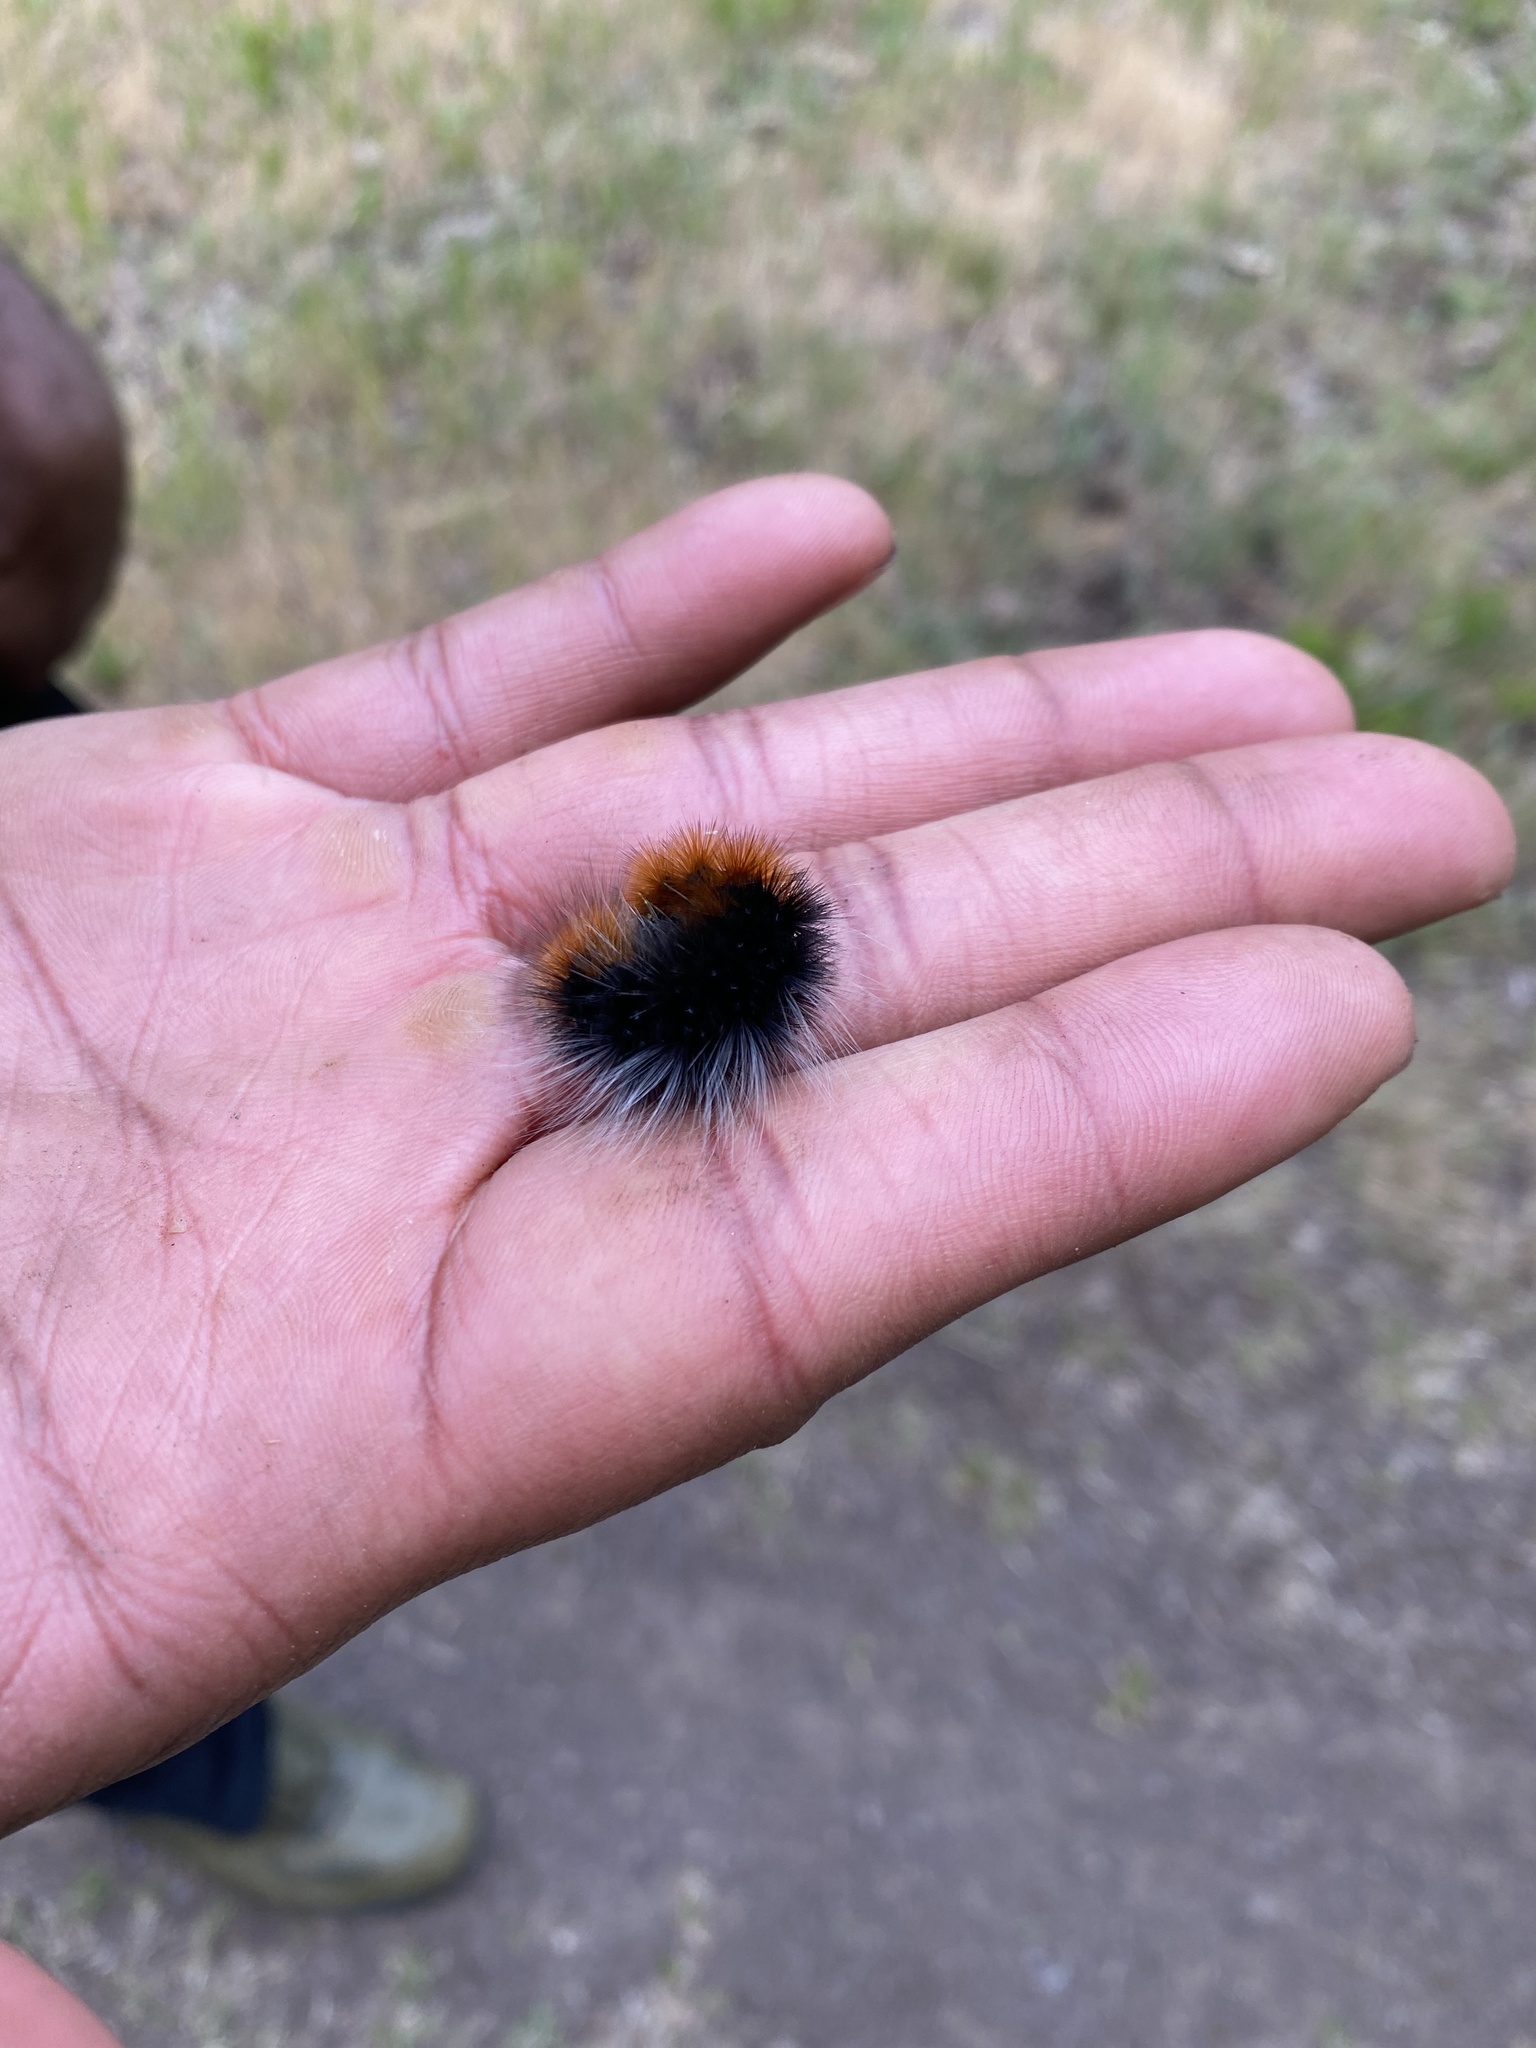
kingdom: Animalia
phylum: Arthropoda
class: Insecta
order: Lepidoptera
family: Erebidae
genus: Arctia
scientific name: Arctia tigrina
